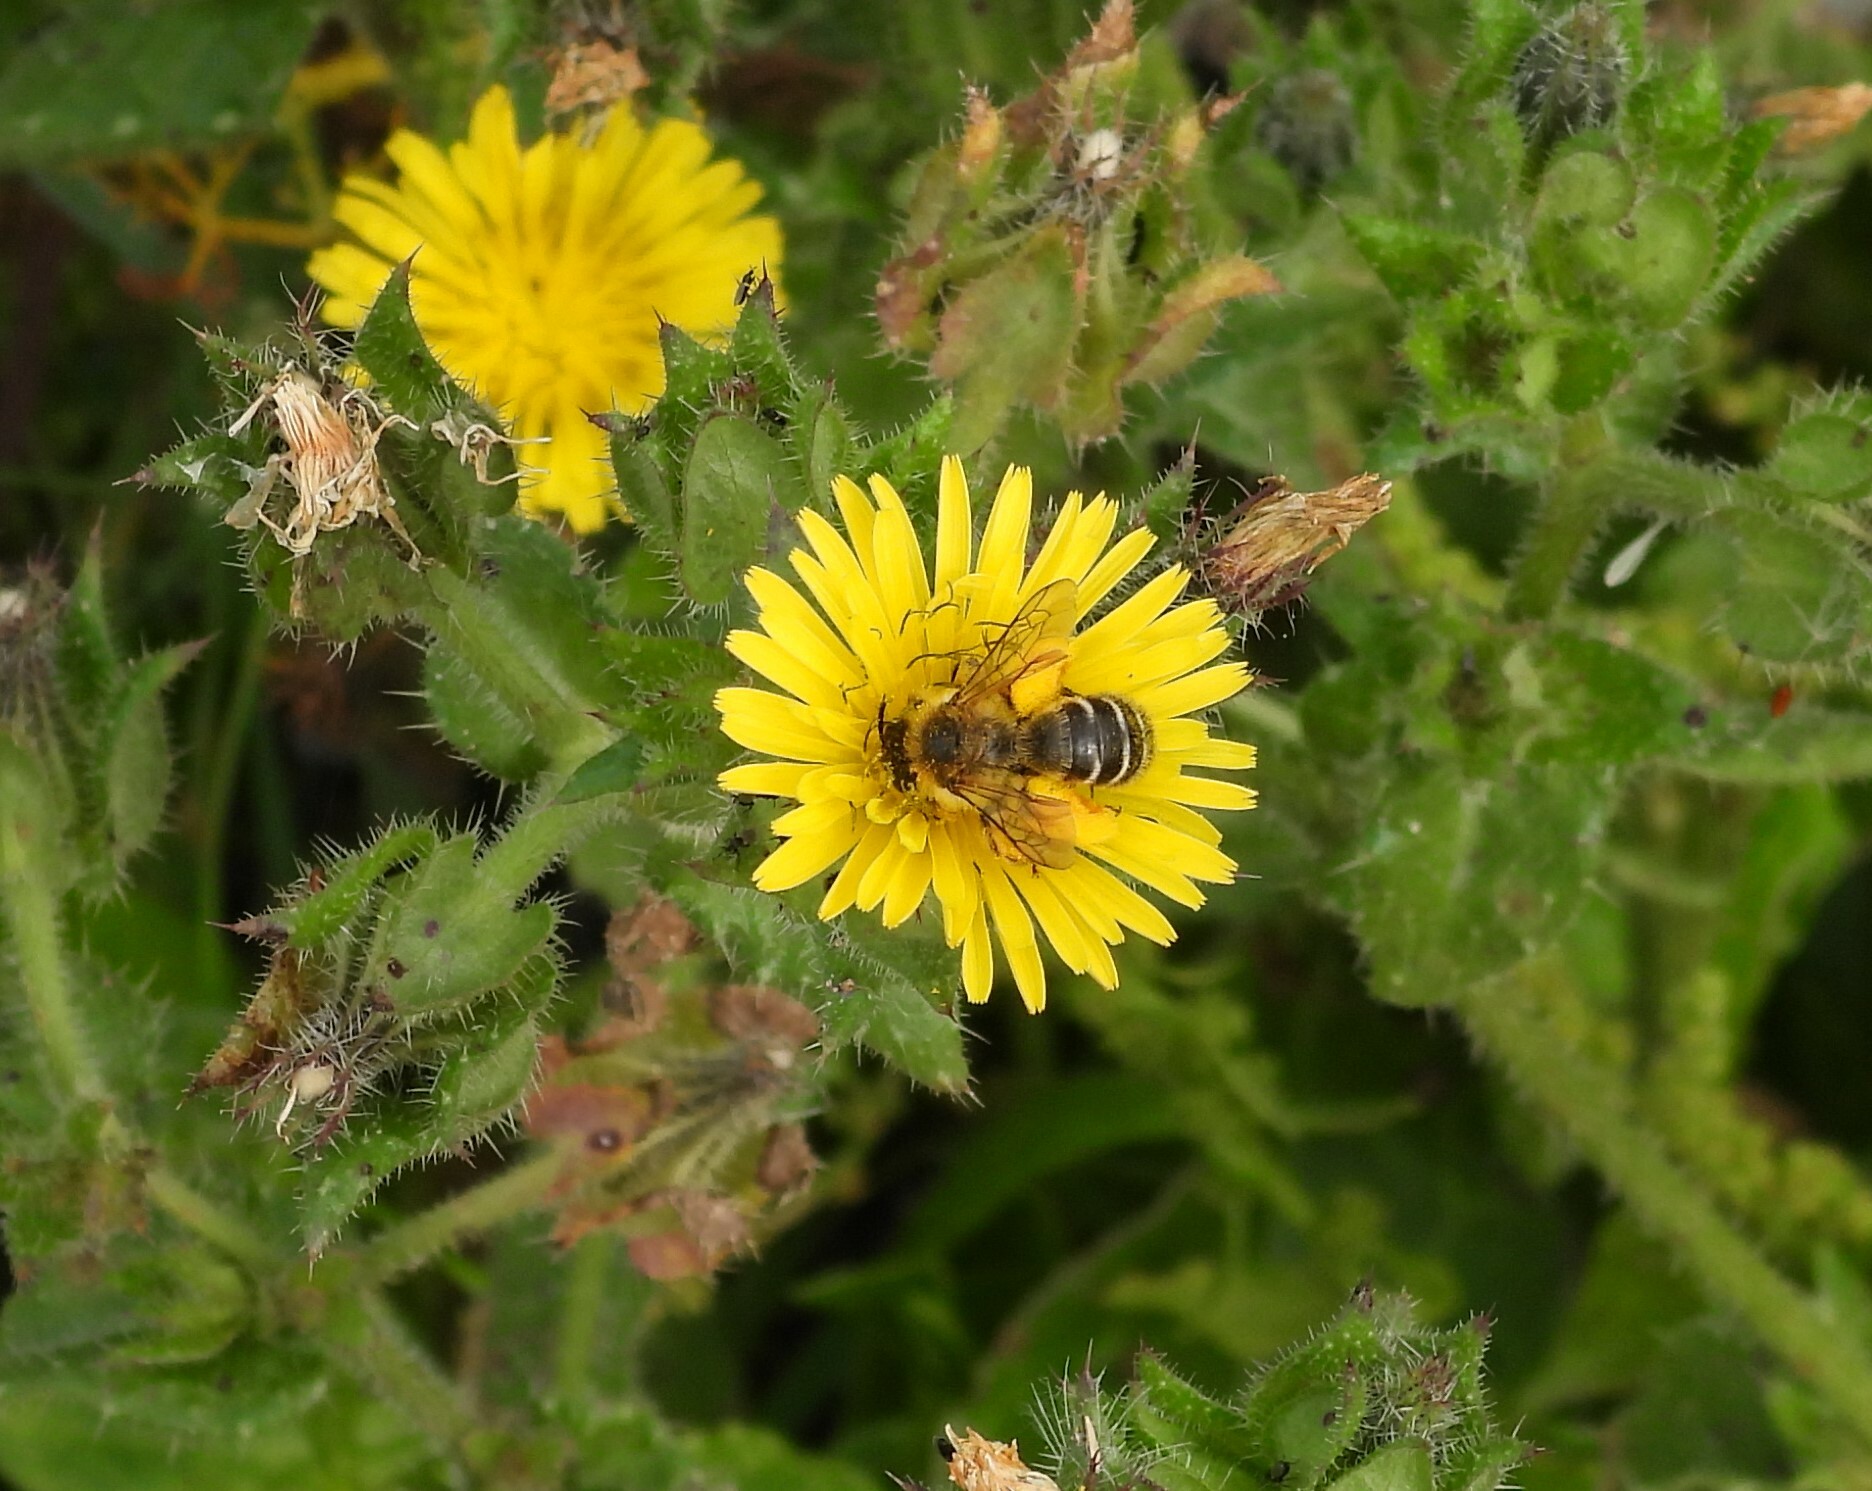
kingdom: Animalia
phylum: Arthropoda
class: Insecta
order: Hymenoptera
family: Melittidae
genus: Dasypoda
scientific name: Dasypoda hirtipes
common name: Pantaloon bee
